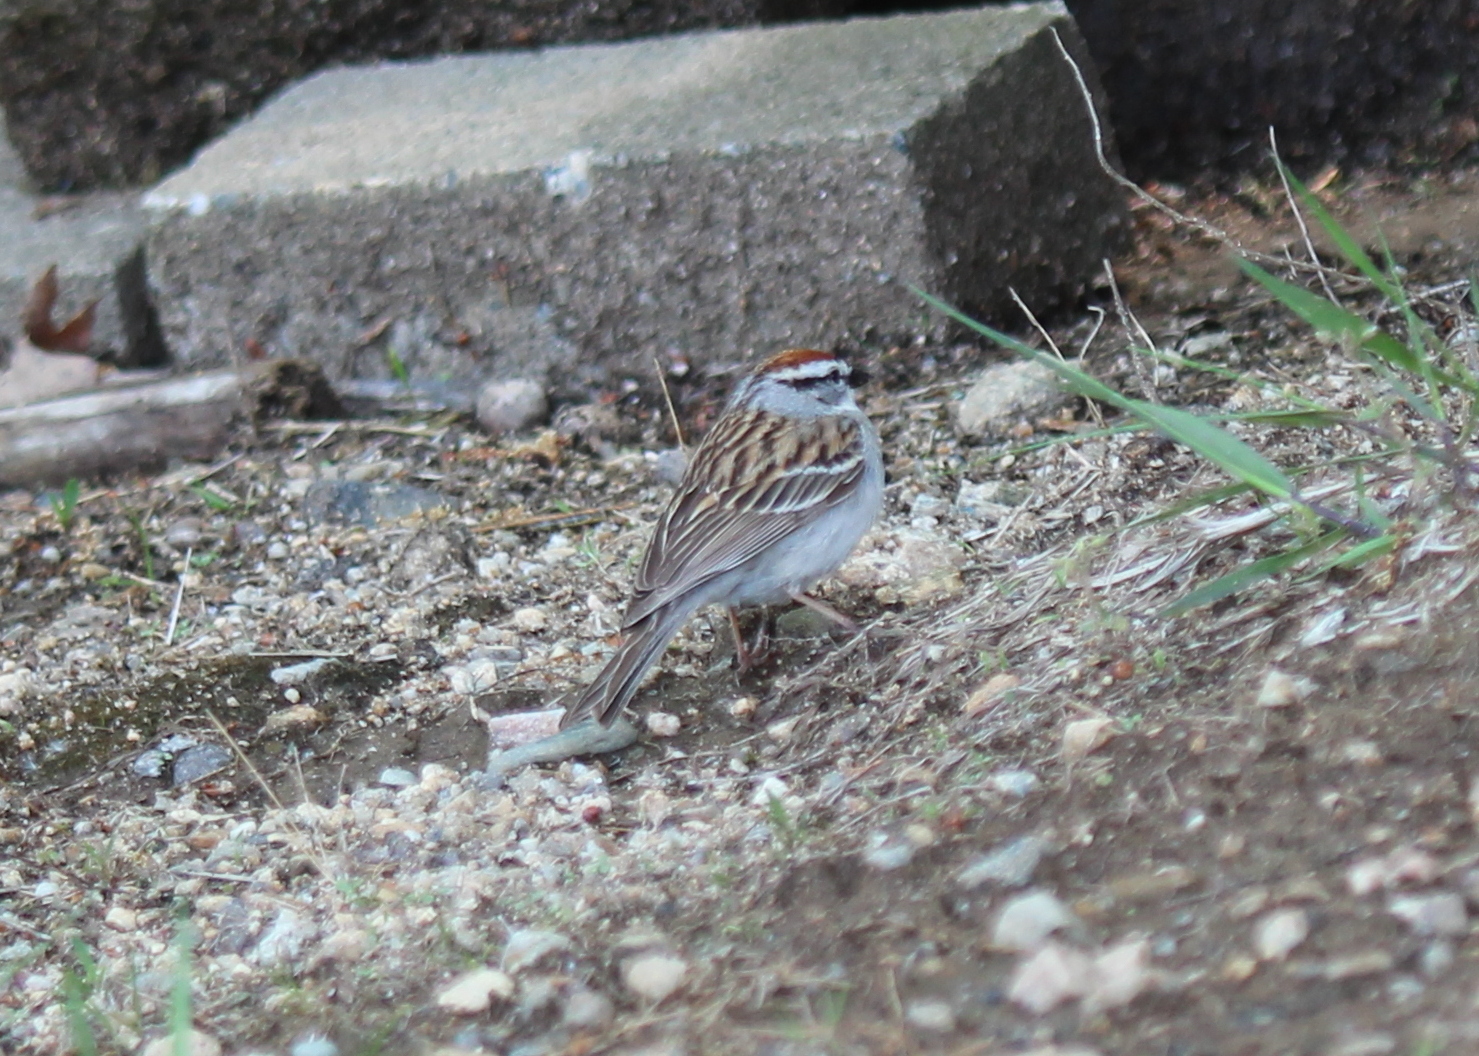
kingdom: Animalia
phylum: Chordata
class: Aves
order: Passeriformes
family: Passerellidae
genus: Spizella
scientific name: Spizella passerina
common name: Chipping sparrow
